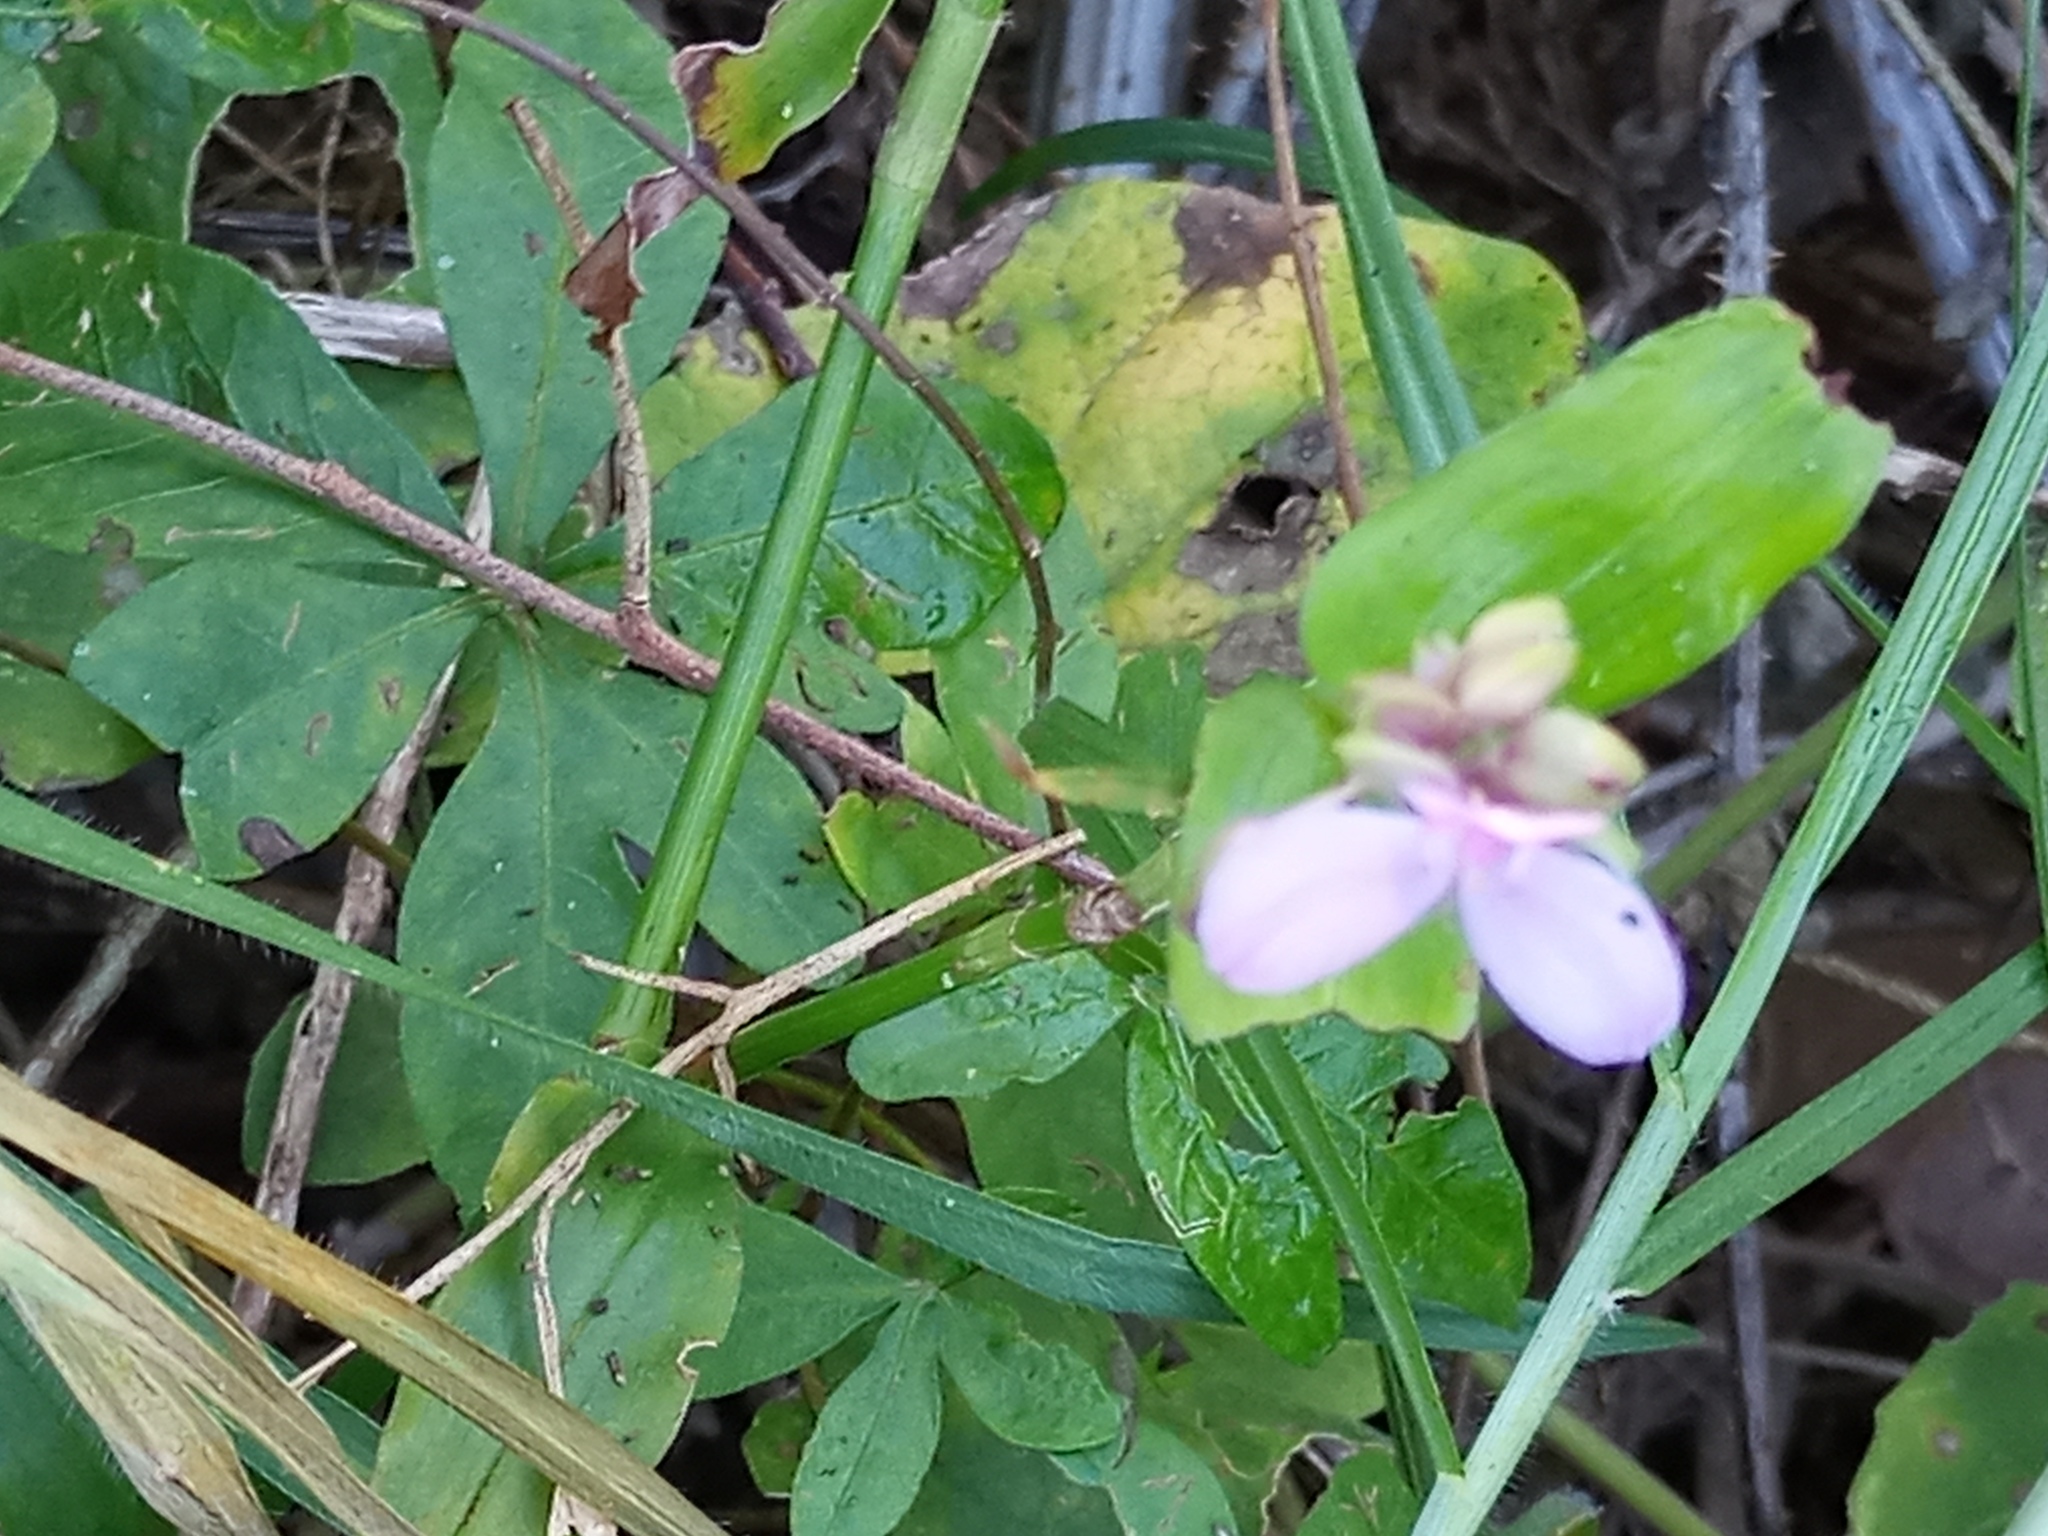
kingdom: Plantae
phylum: Tracheophyta
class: Liliopsida
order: Commelinales
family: Commelinaceae
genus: Callisia
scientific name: Callisia diuretica
